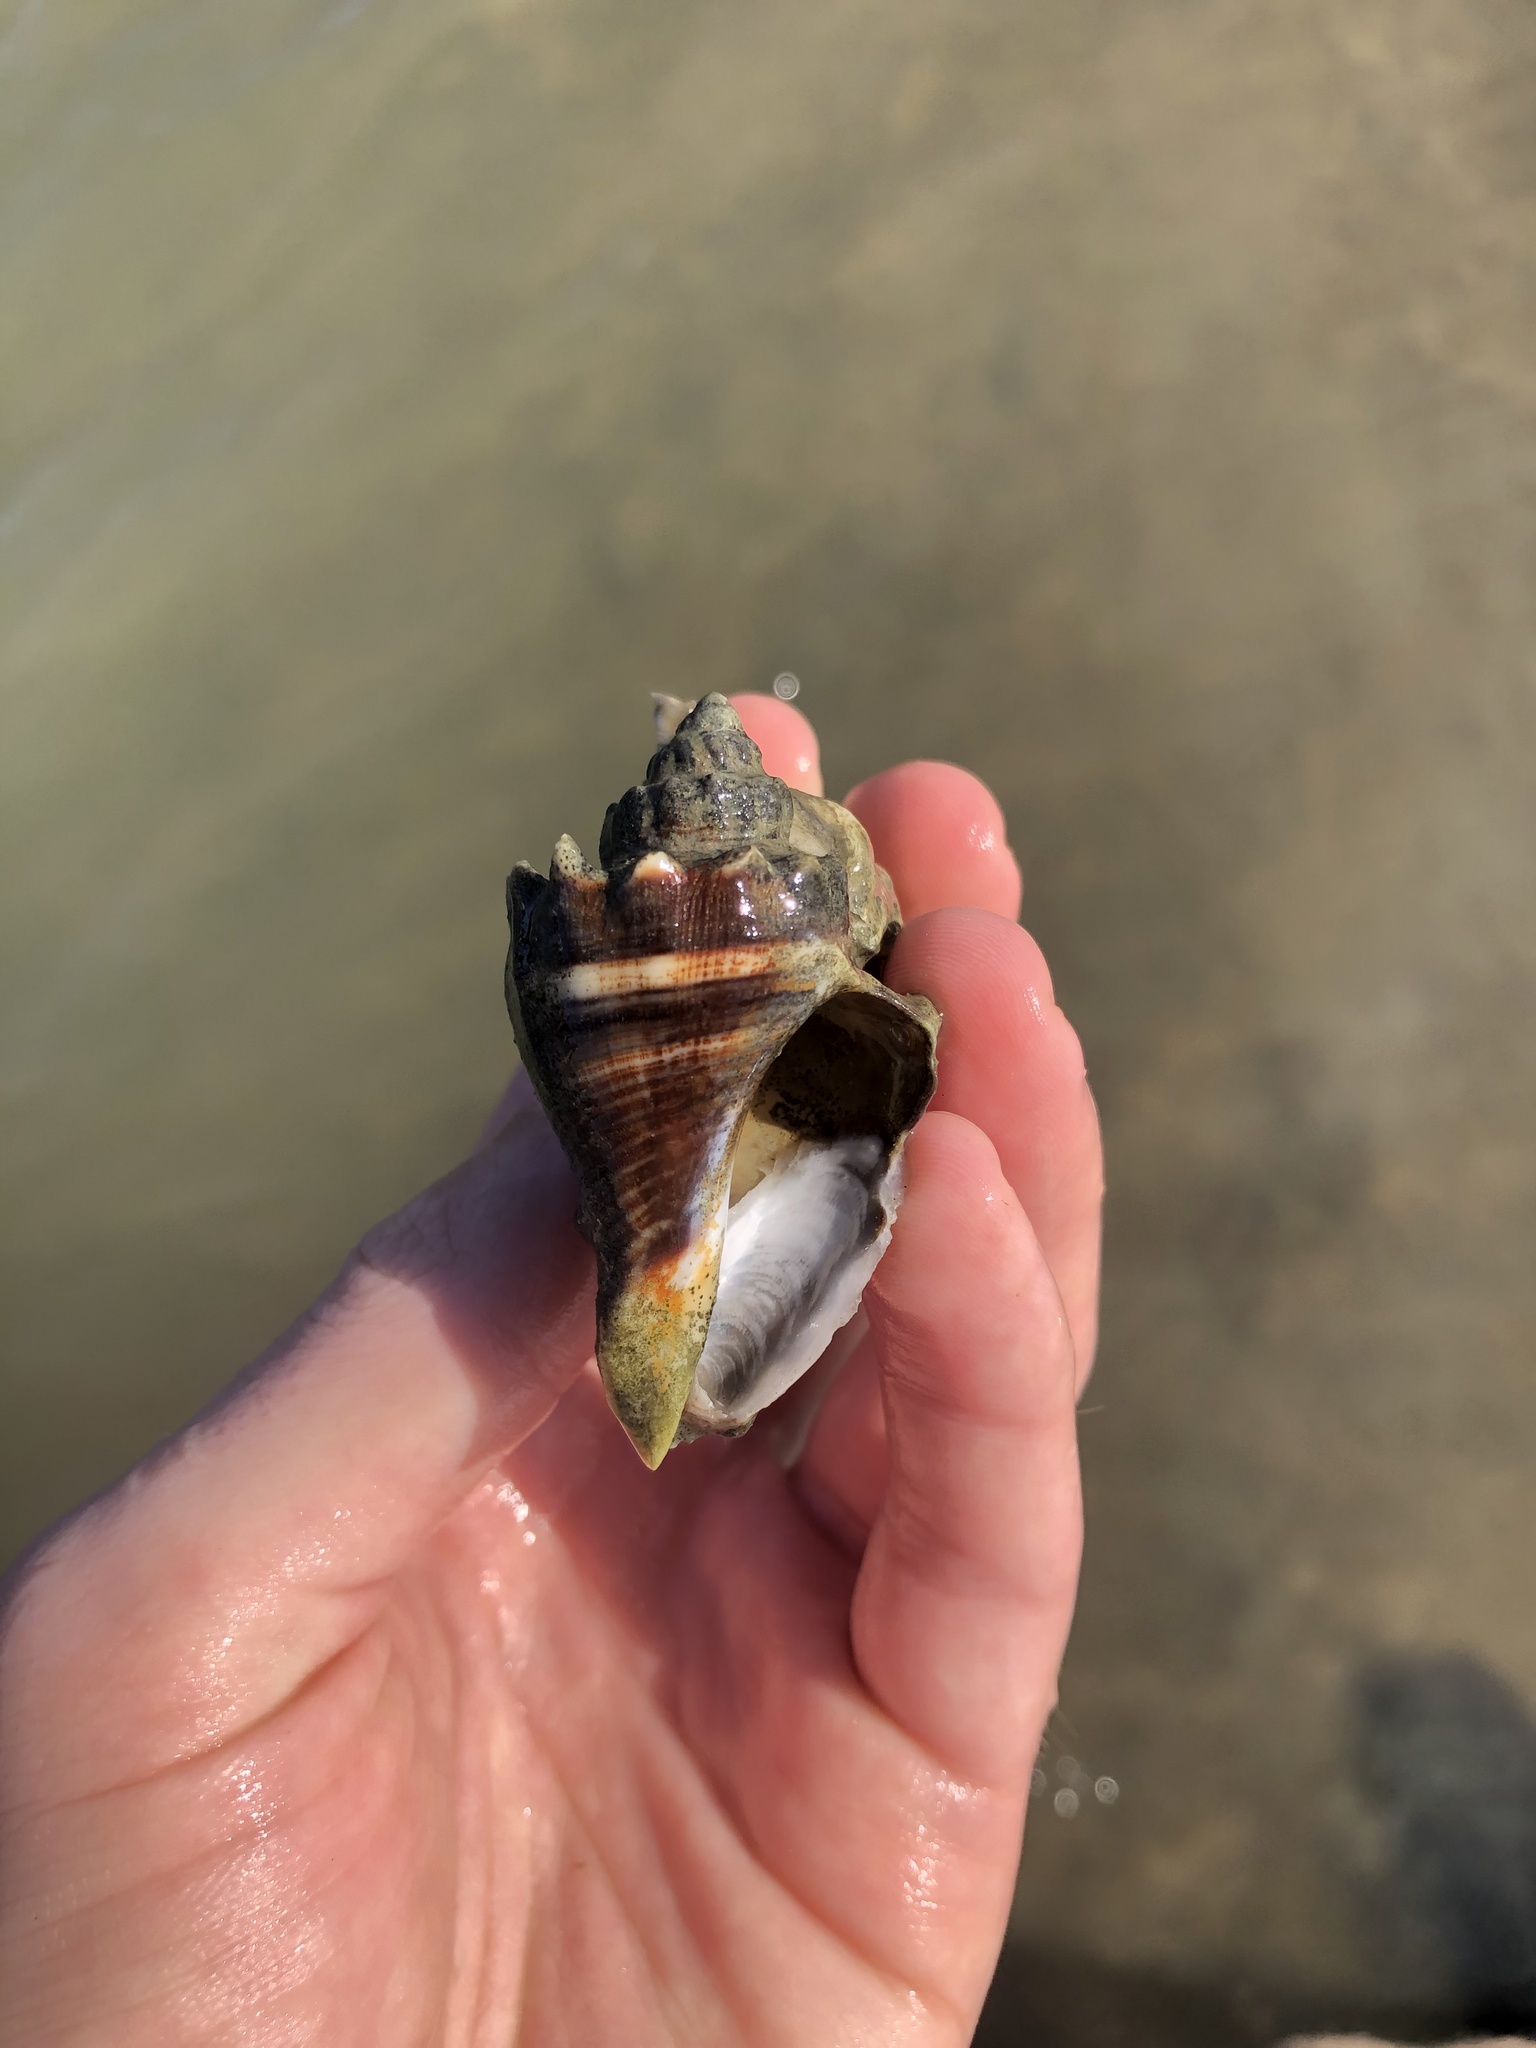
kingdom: Animalia
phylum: Mollusca
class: Gastropoda
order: Neogastropoda
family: Melongenidae
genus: Melongena
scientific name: Melongena corona
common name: American crown conch
